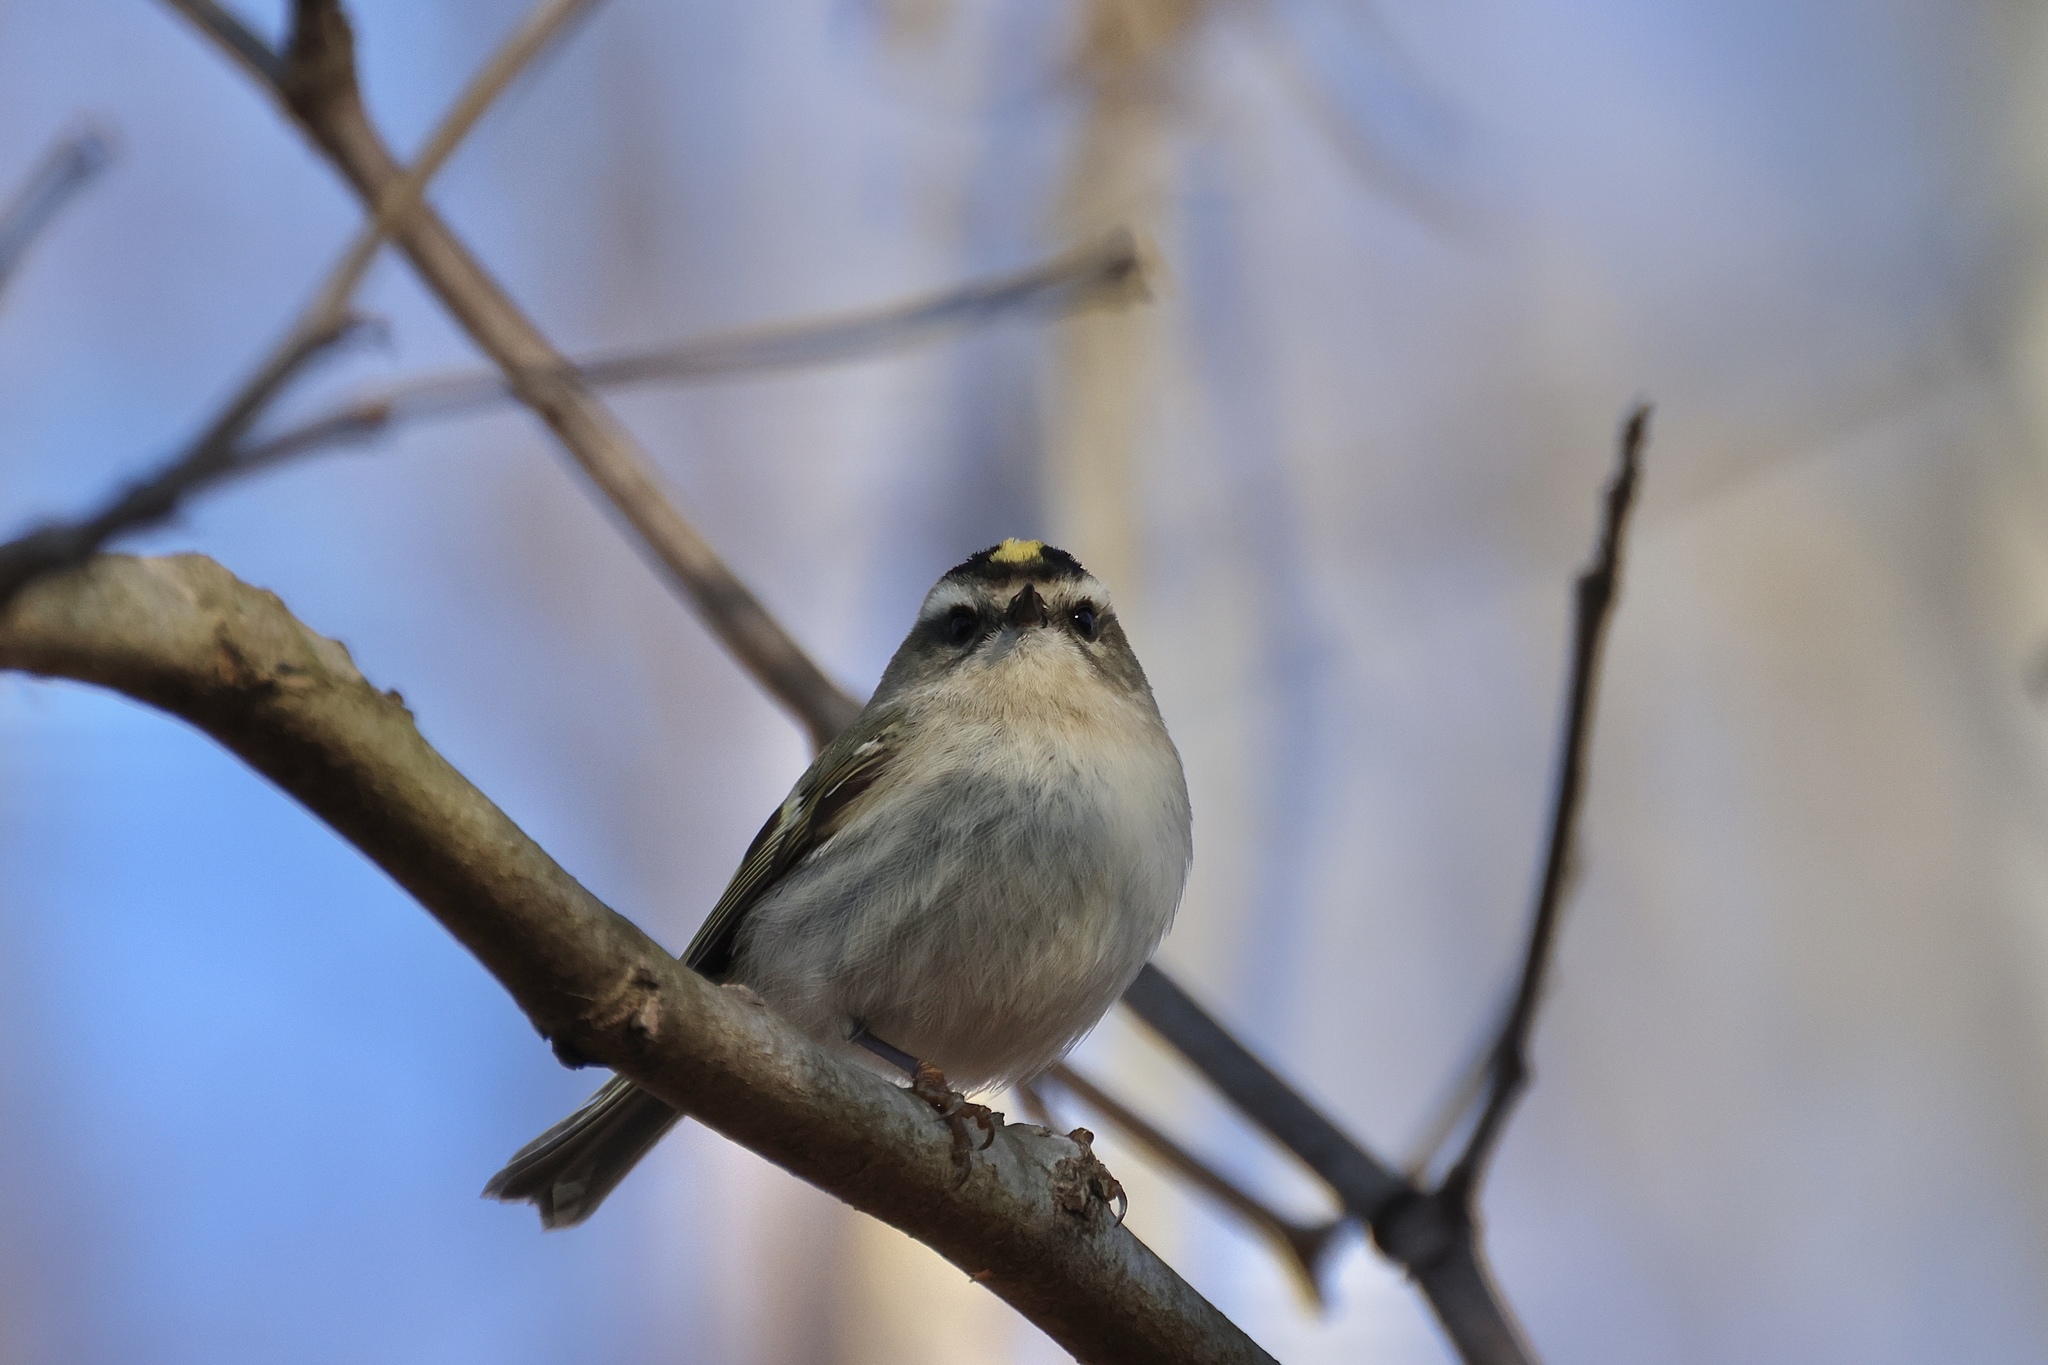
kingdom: Animalia
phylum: Chordata
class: Aves
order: Passeriformes
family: Regulidae
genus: Regulus
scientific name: Regulus satrapa
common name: Golden-crowned kinglet
